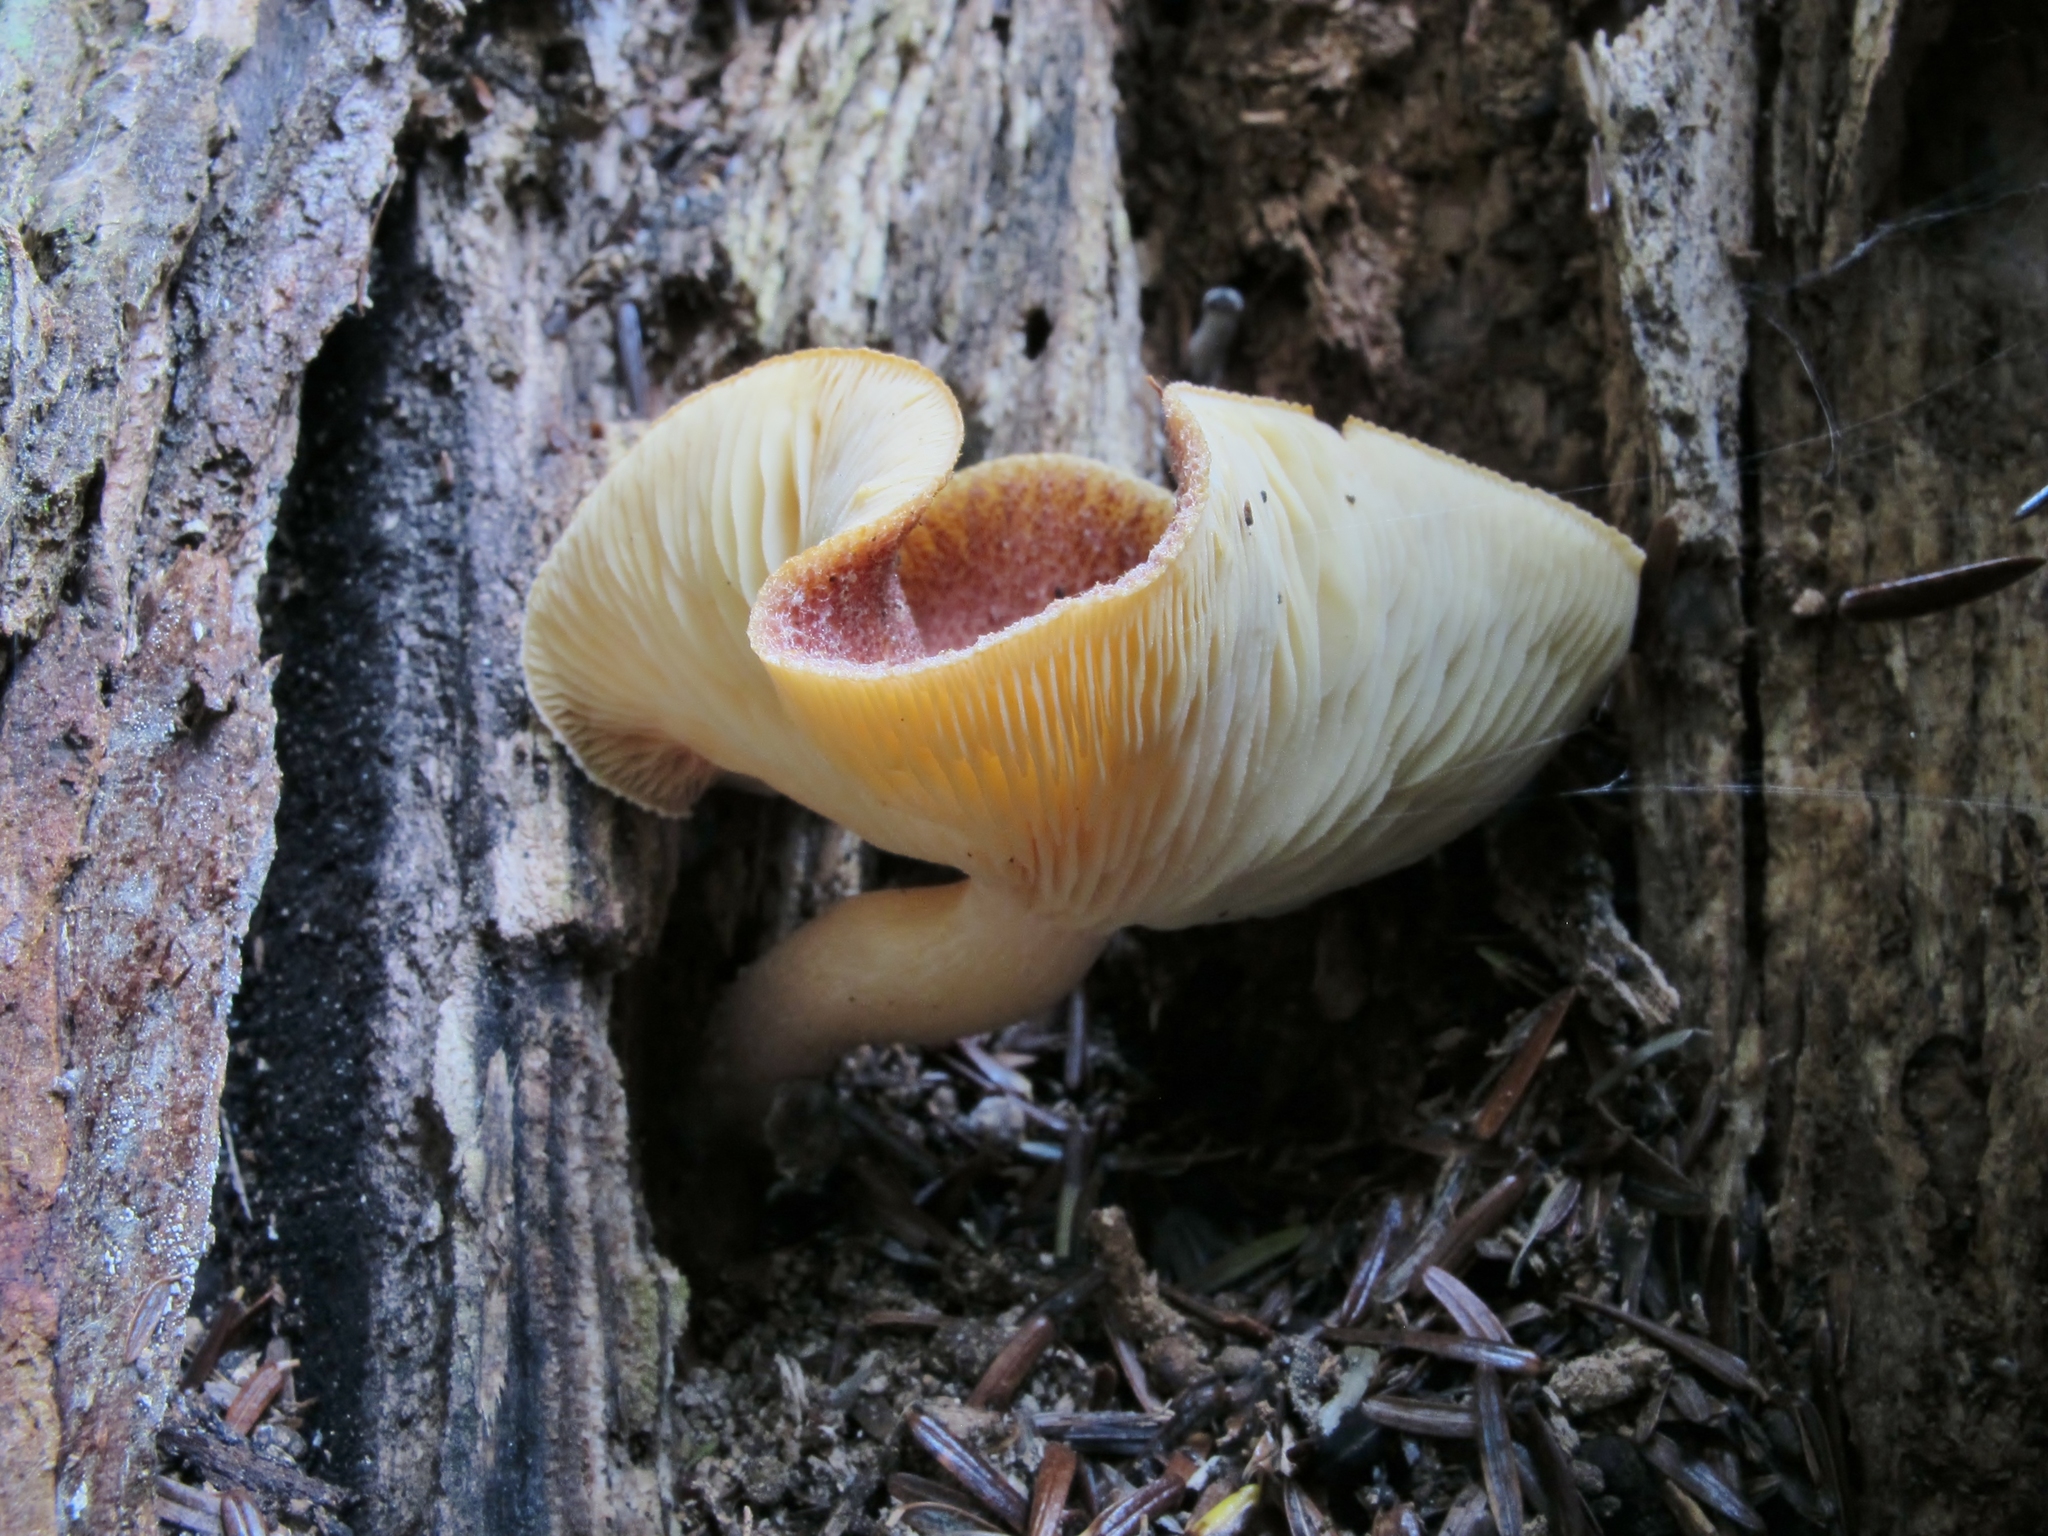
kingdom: Fungi
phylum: Basidiomycota
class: Agaricomycetes
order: Agaricales
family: Tricholomataceae
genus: Tricholomopsis
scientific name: Tricholomopsis rutilans
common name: Plums and custard
